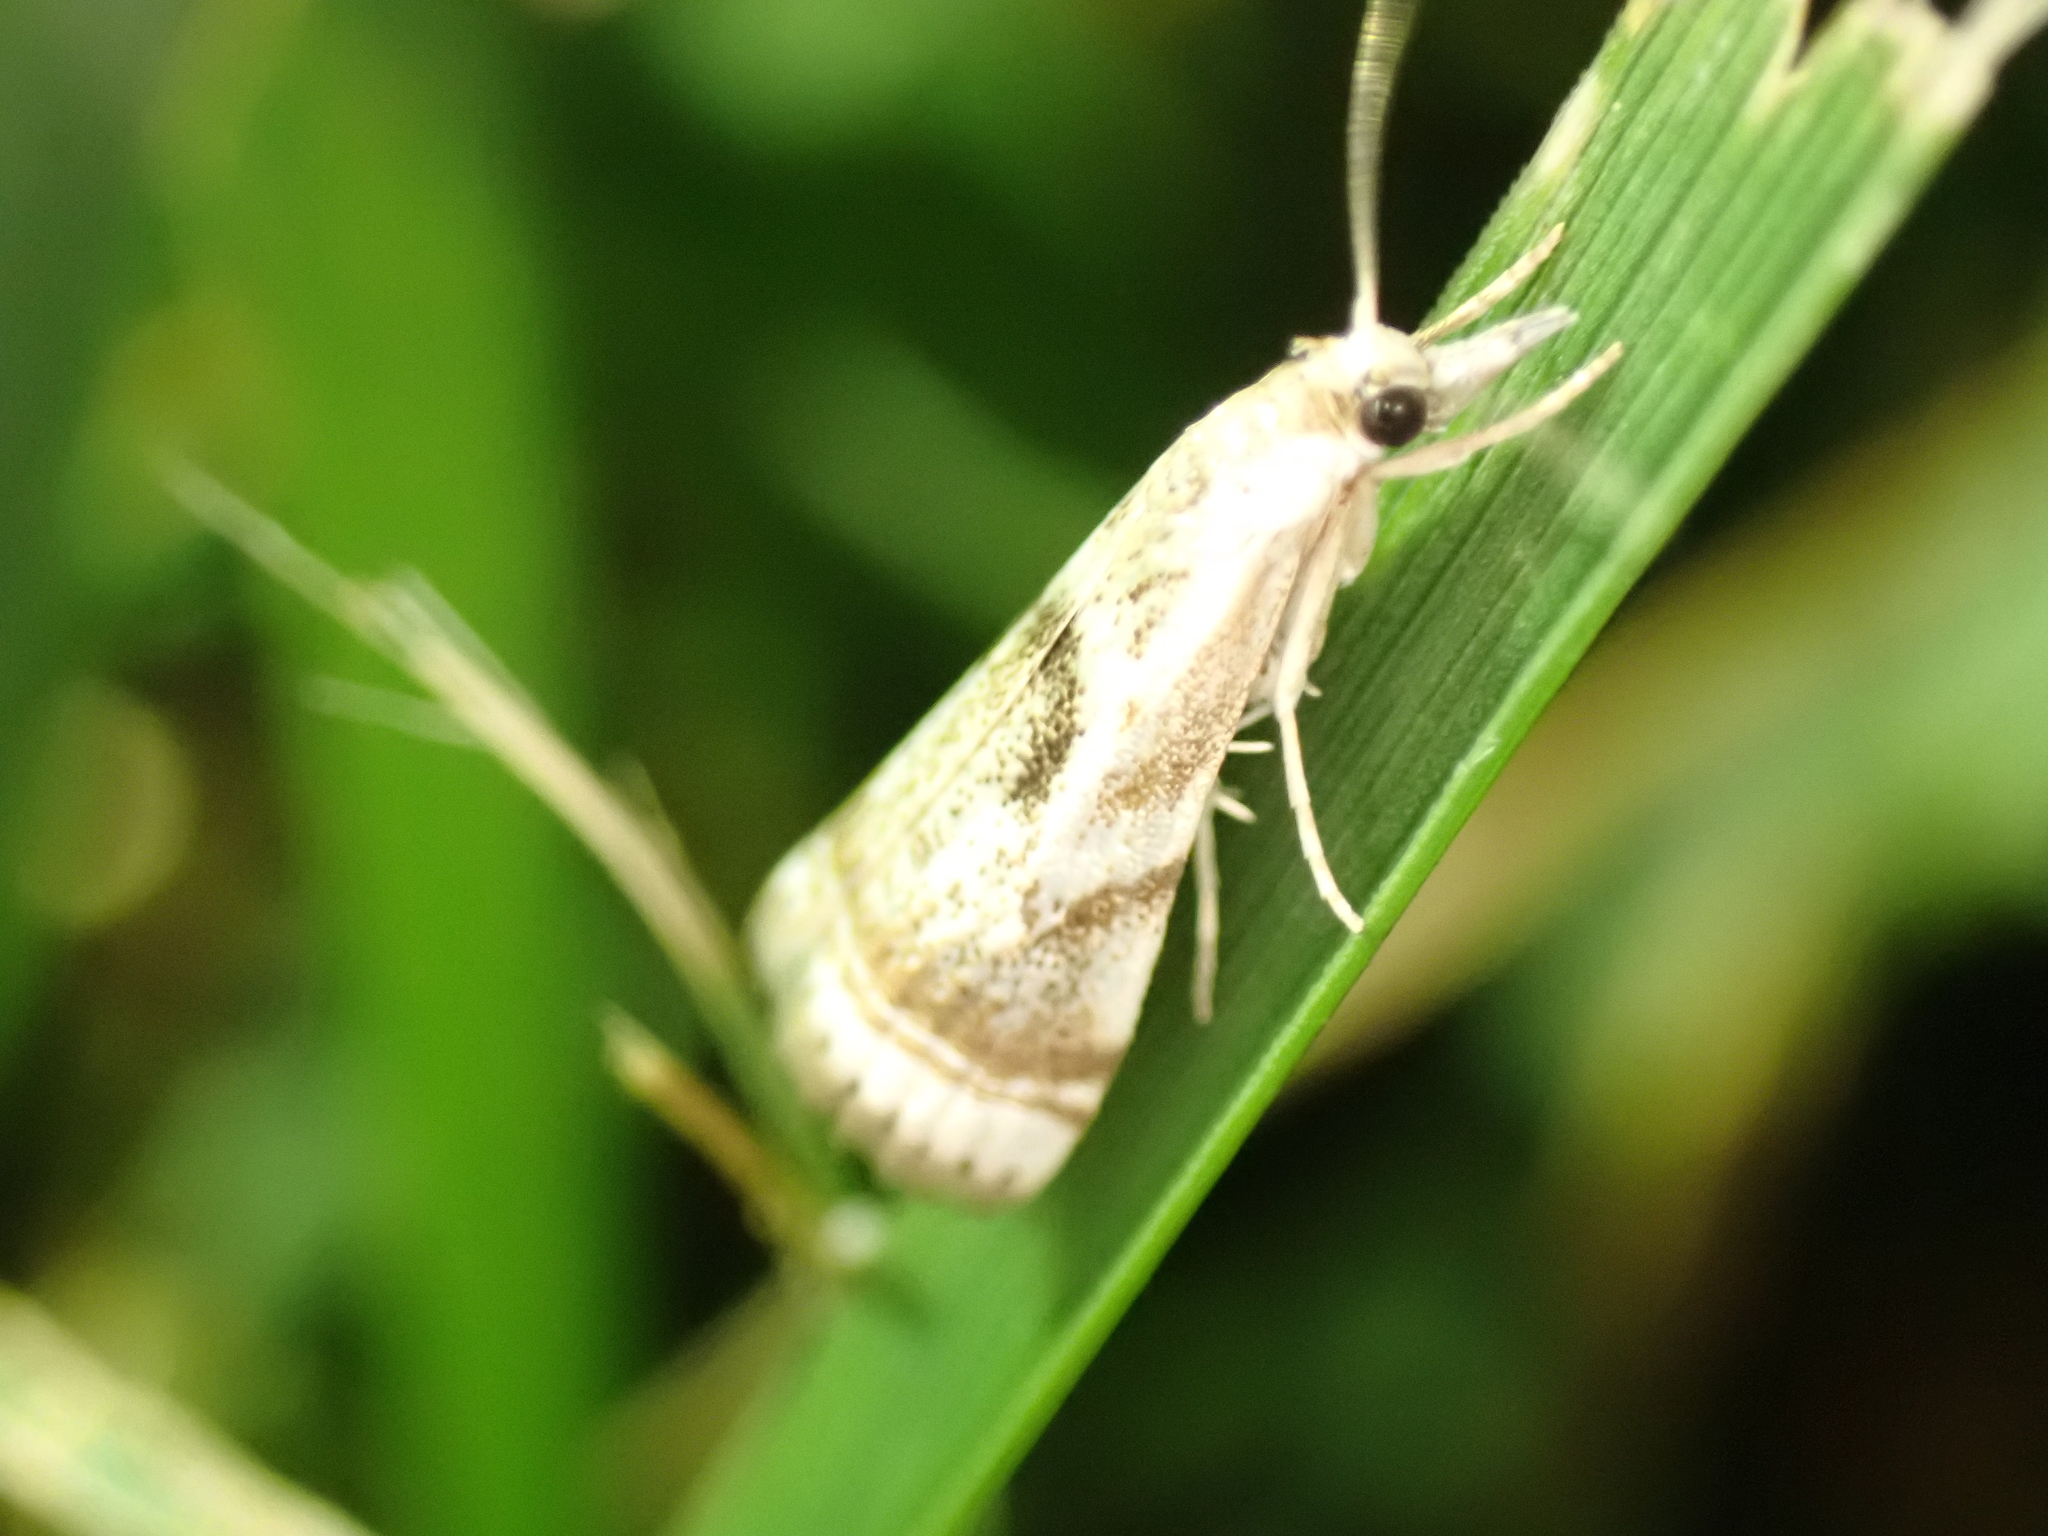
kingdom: Animalia
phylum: Arthropoda
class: Insecta
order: Lepidoptera
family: Crambidae
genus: Microcrambus
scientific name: Microcrambus elegans
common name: Elegant grass-veneer
